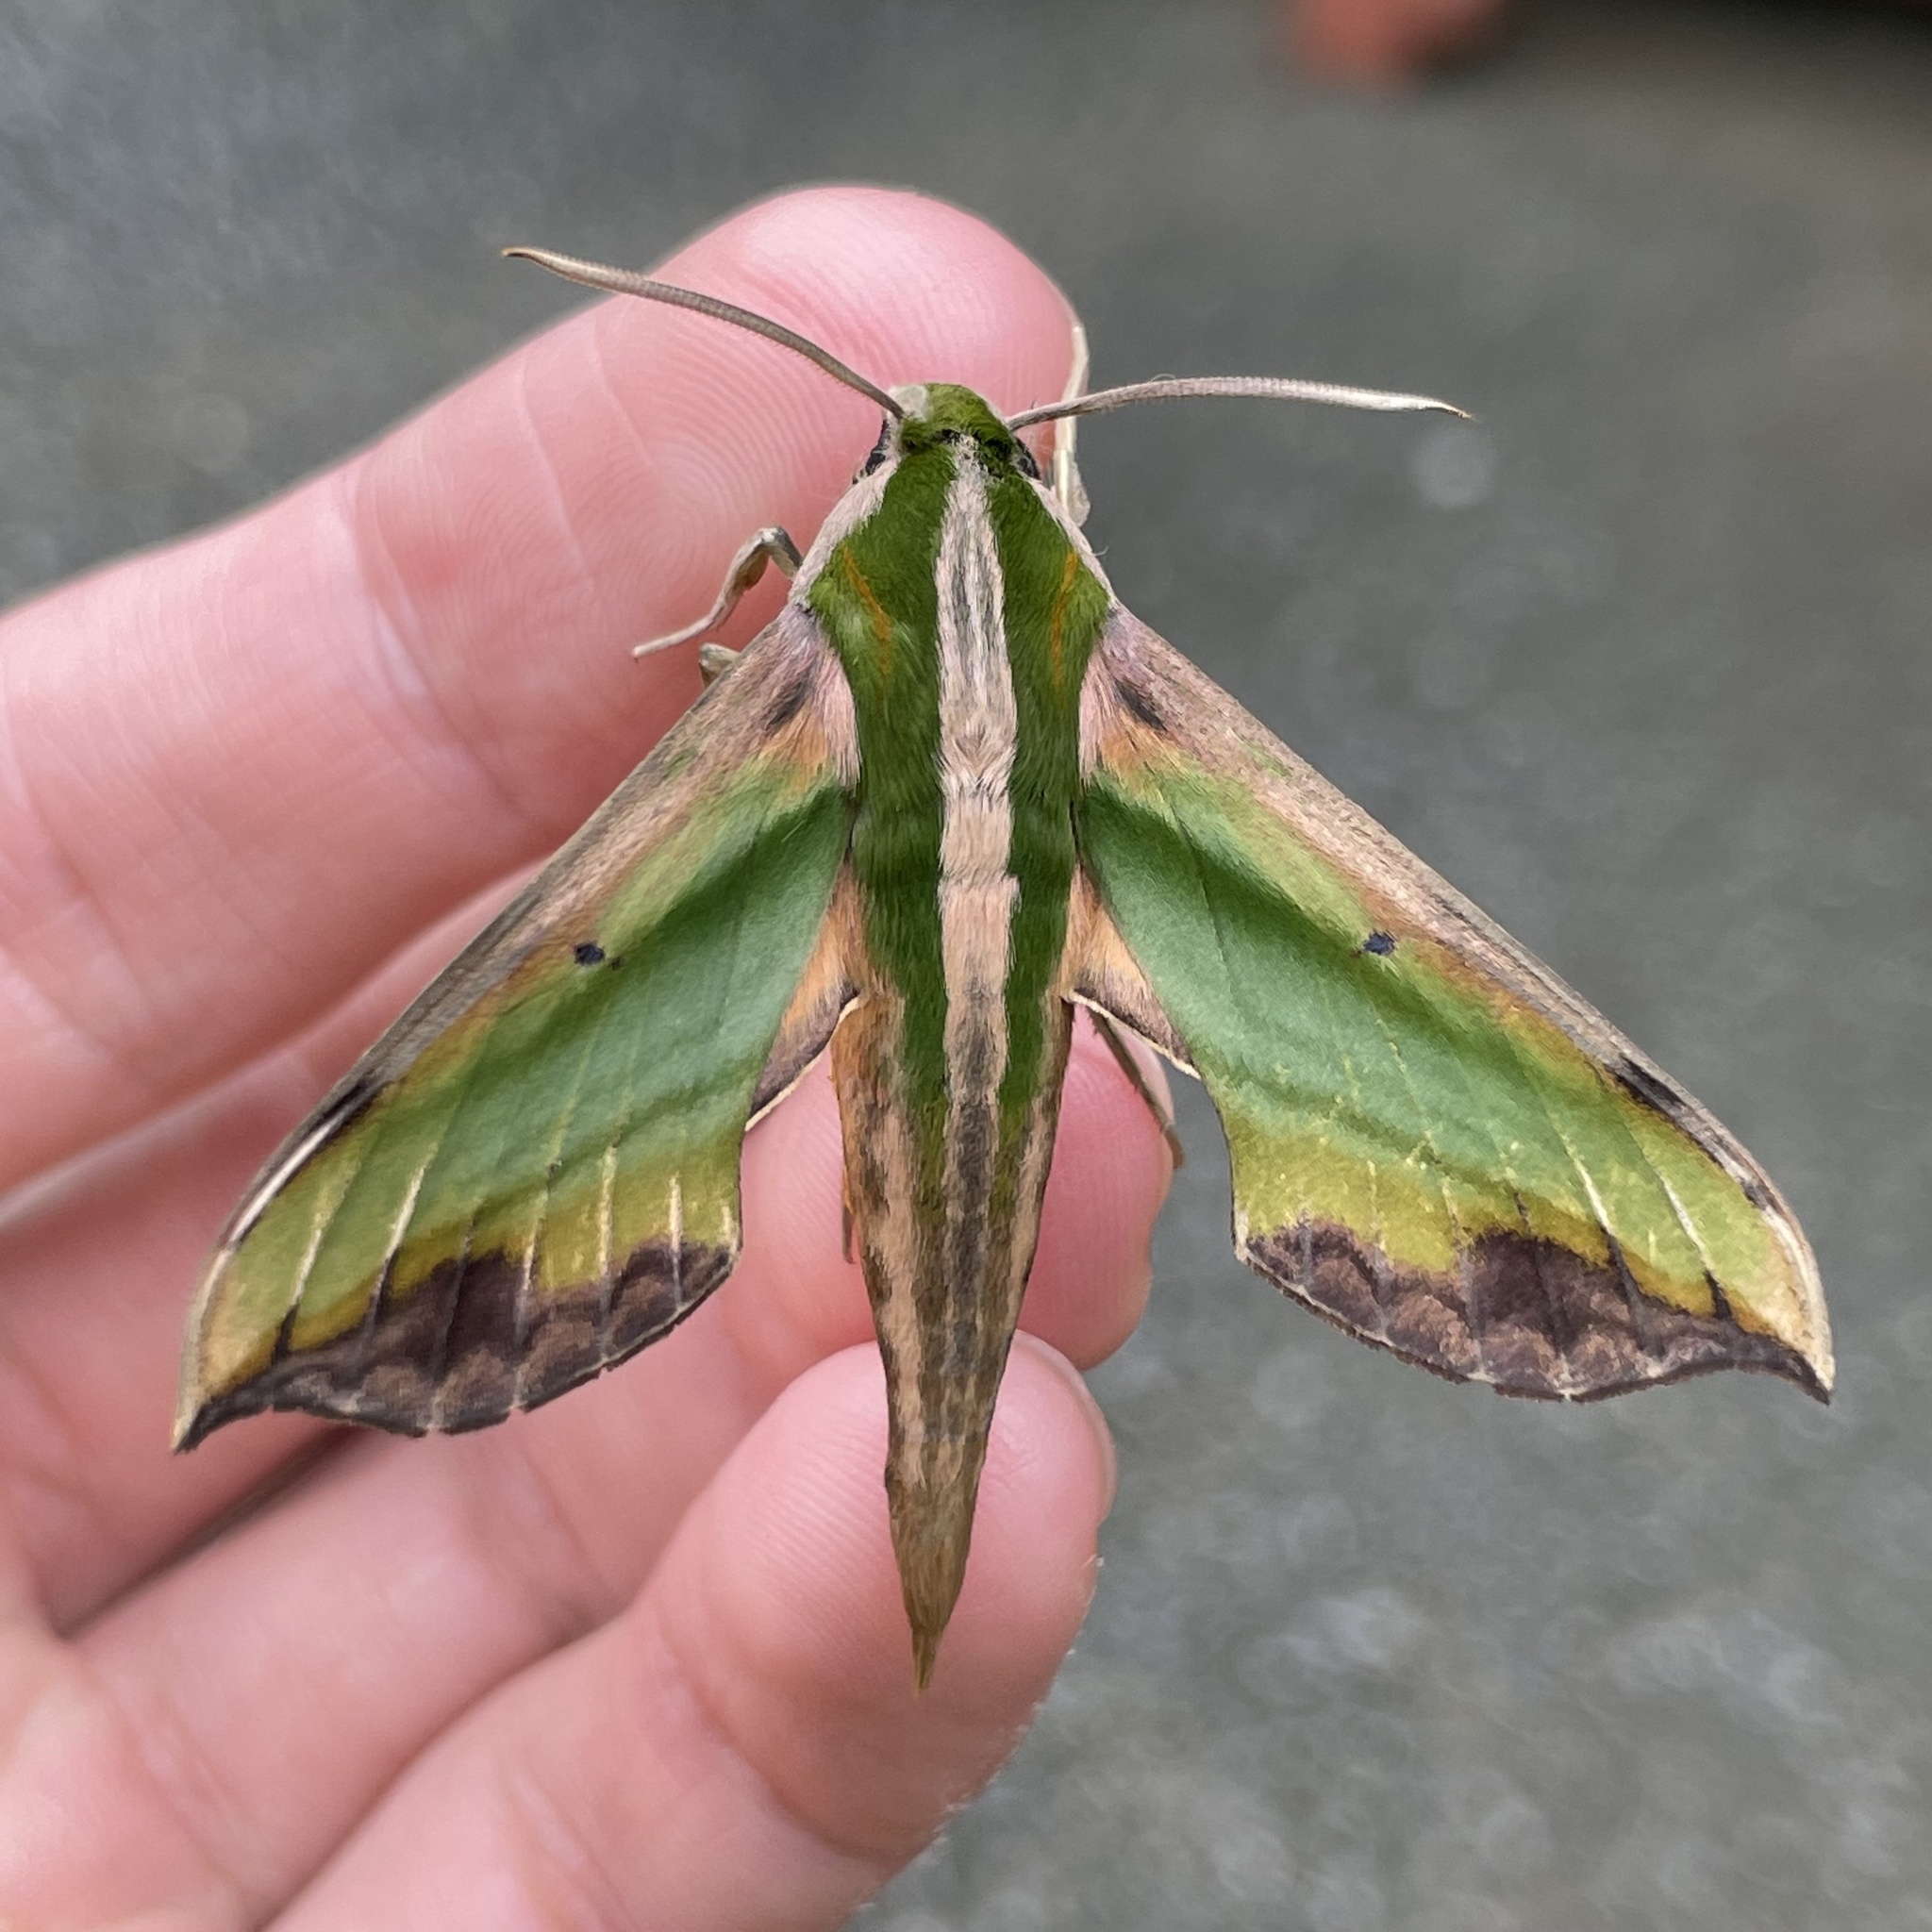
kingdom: Animalia
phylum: Arthropoda
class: Insecta
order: Lepidoptera
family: Sphingidae
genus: Pergesa
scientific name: Pergesa acteus
